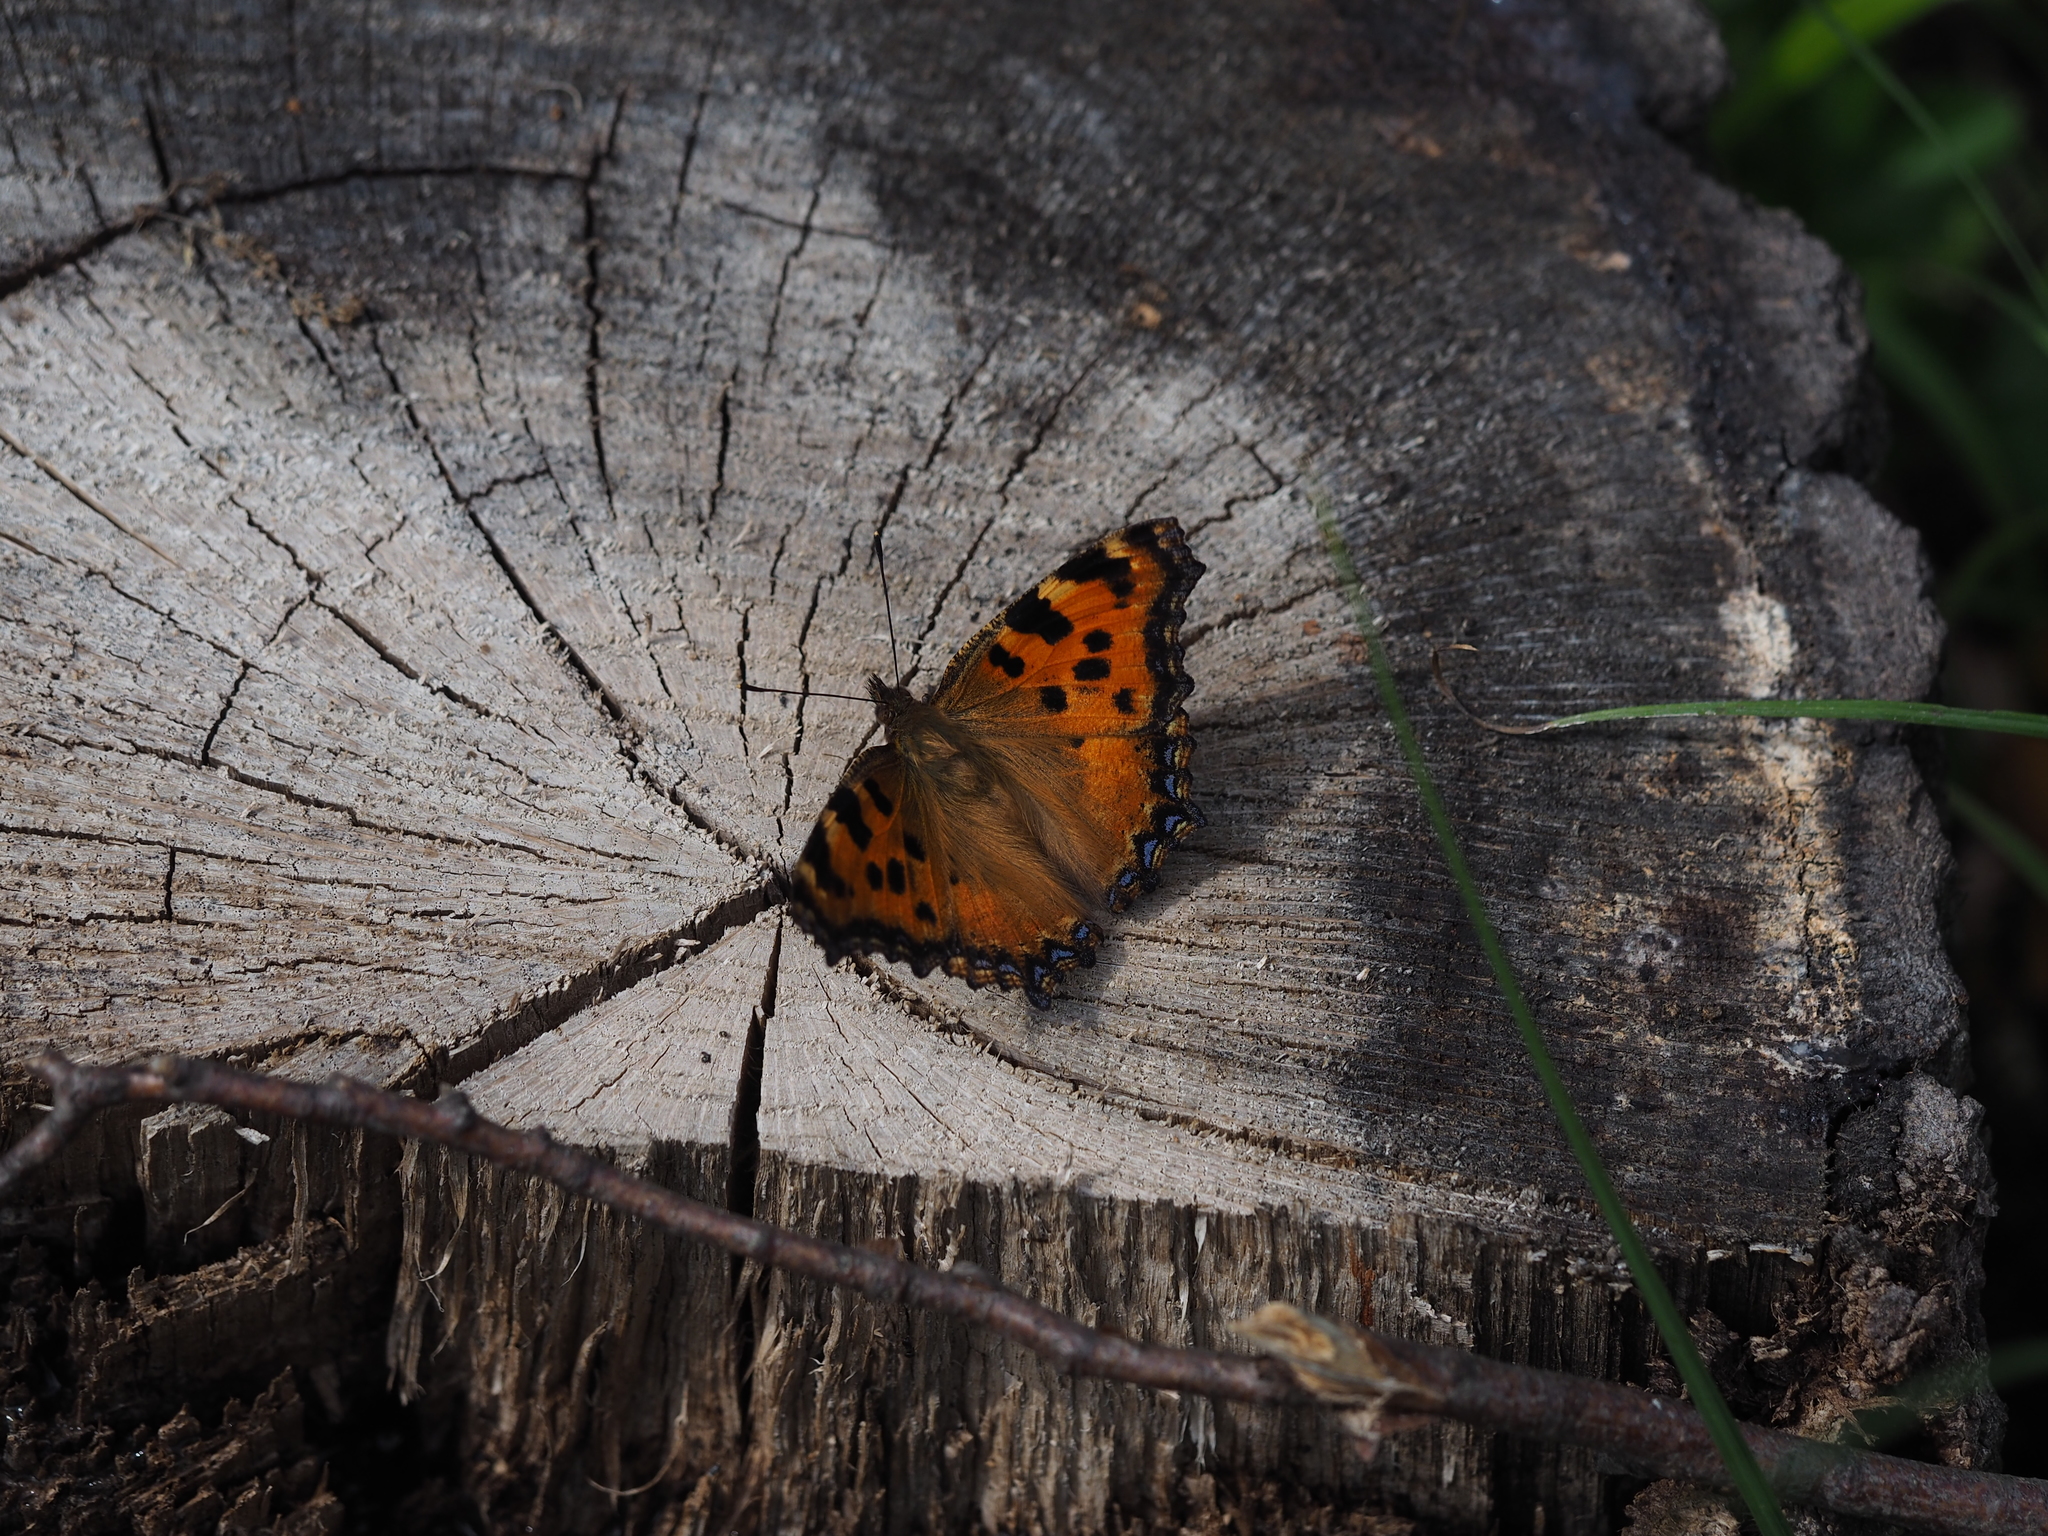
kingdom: Animalia
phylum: Arthropoda
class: Insecta
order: Lepidoptera
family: Nymphalidae
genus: Nymphalis
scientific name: Nymphalis polychloros
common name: Large tortoiseshell
